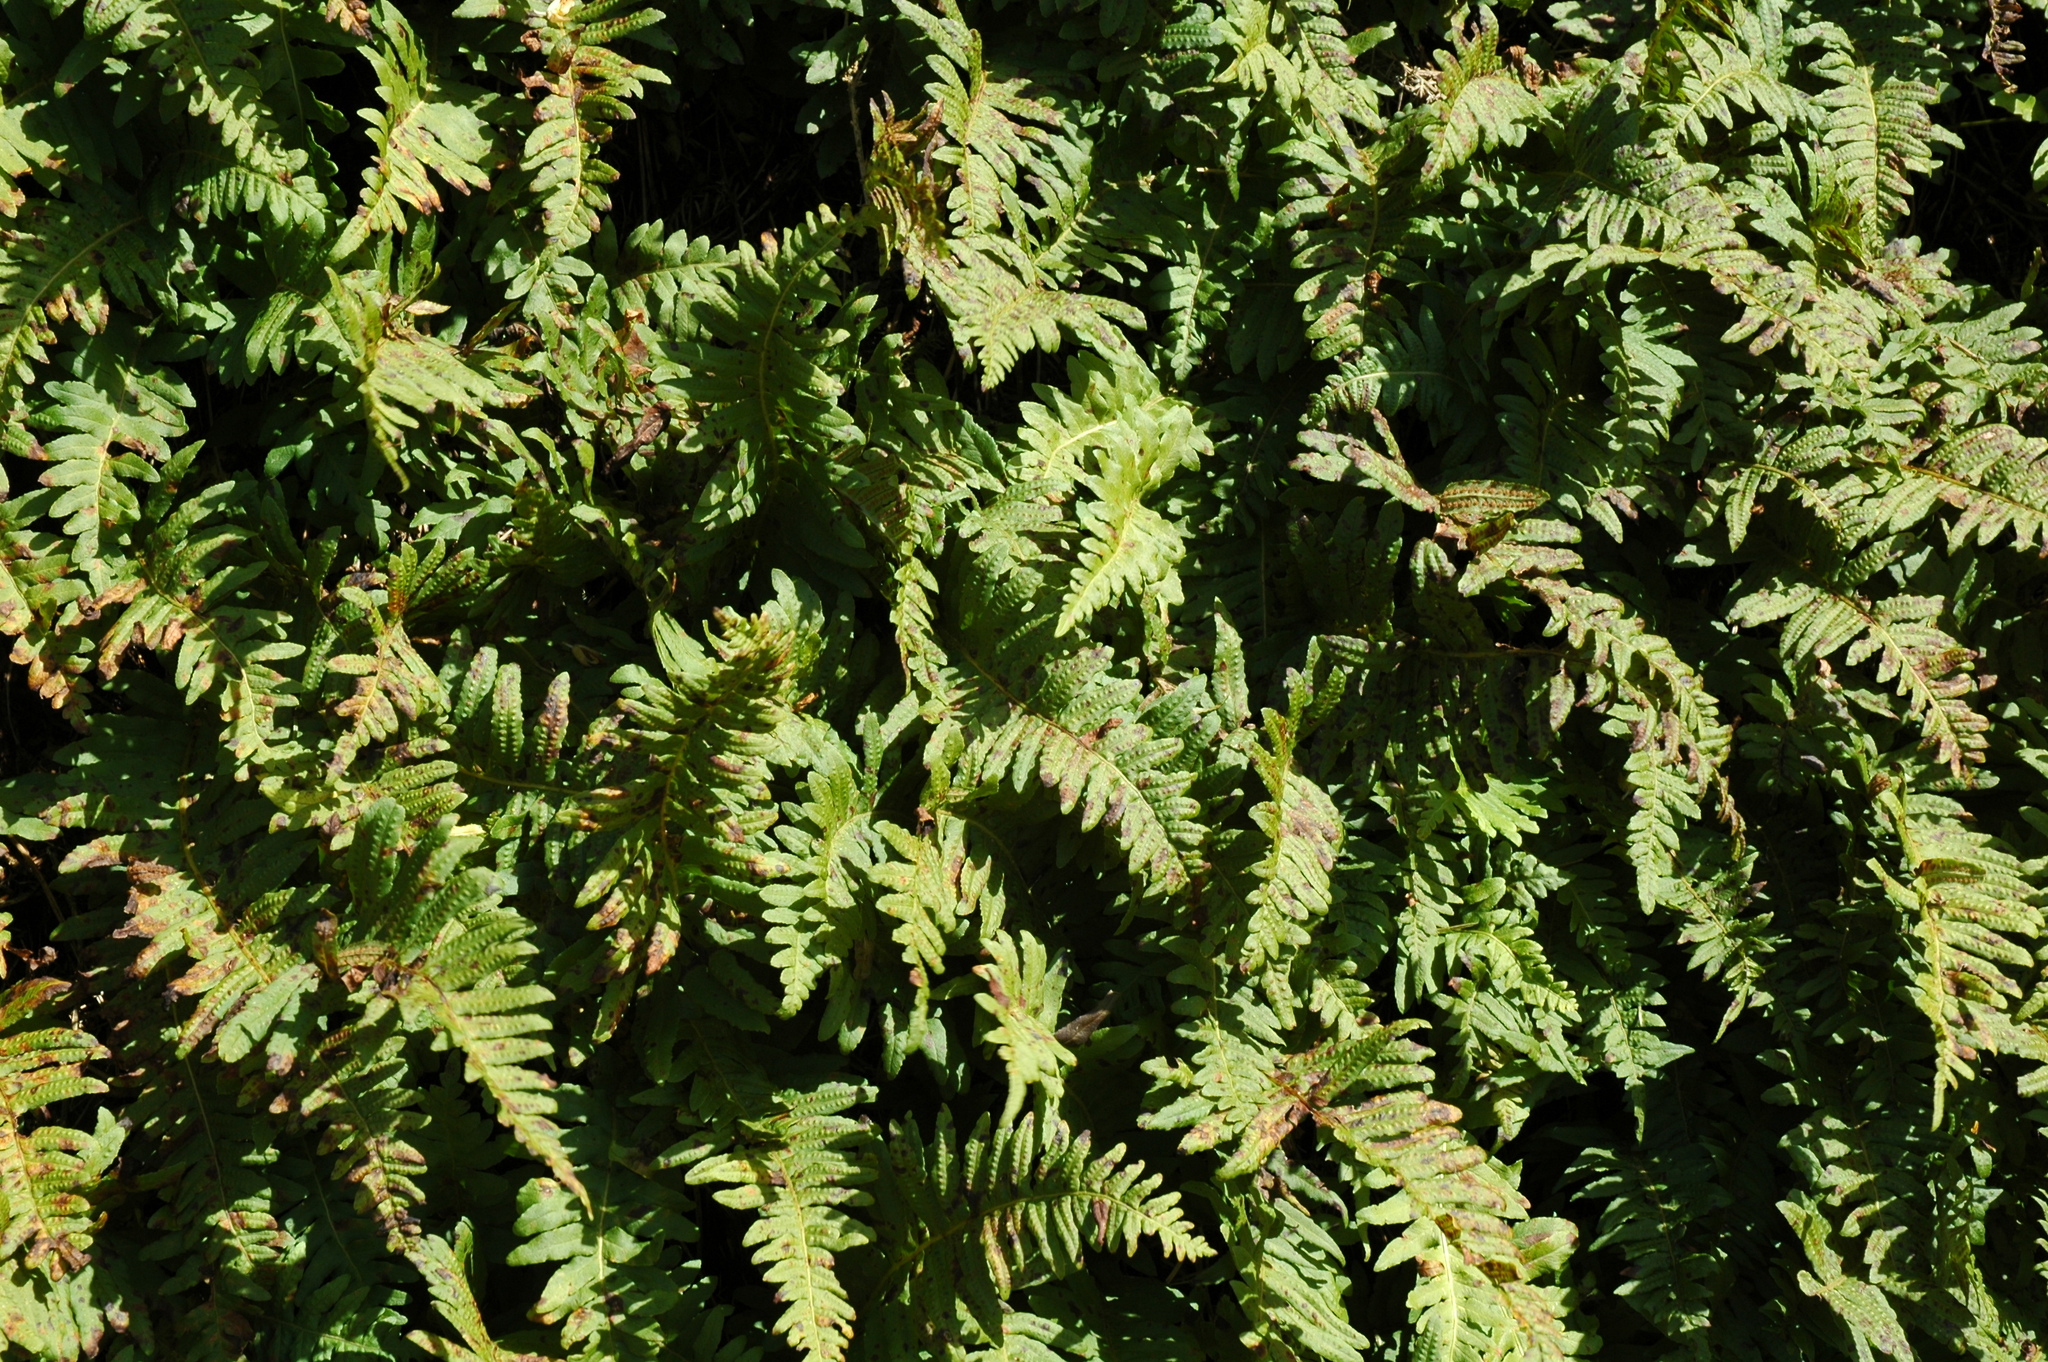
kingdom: Plantae
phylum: Tracheophyta
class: Polypodiopsida
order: Polypodiales
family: Polypodiaceae
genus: Polypodium
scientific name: Polypodium calirhiza
